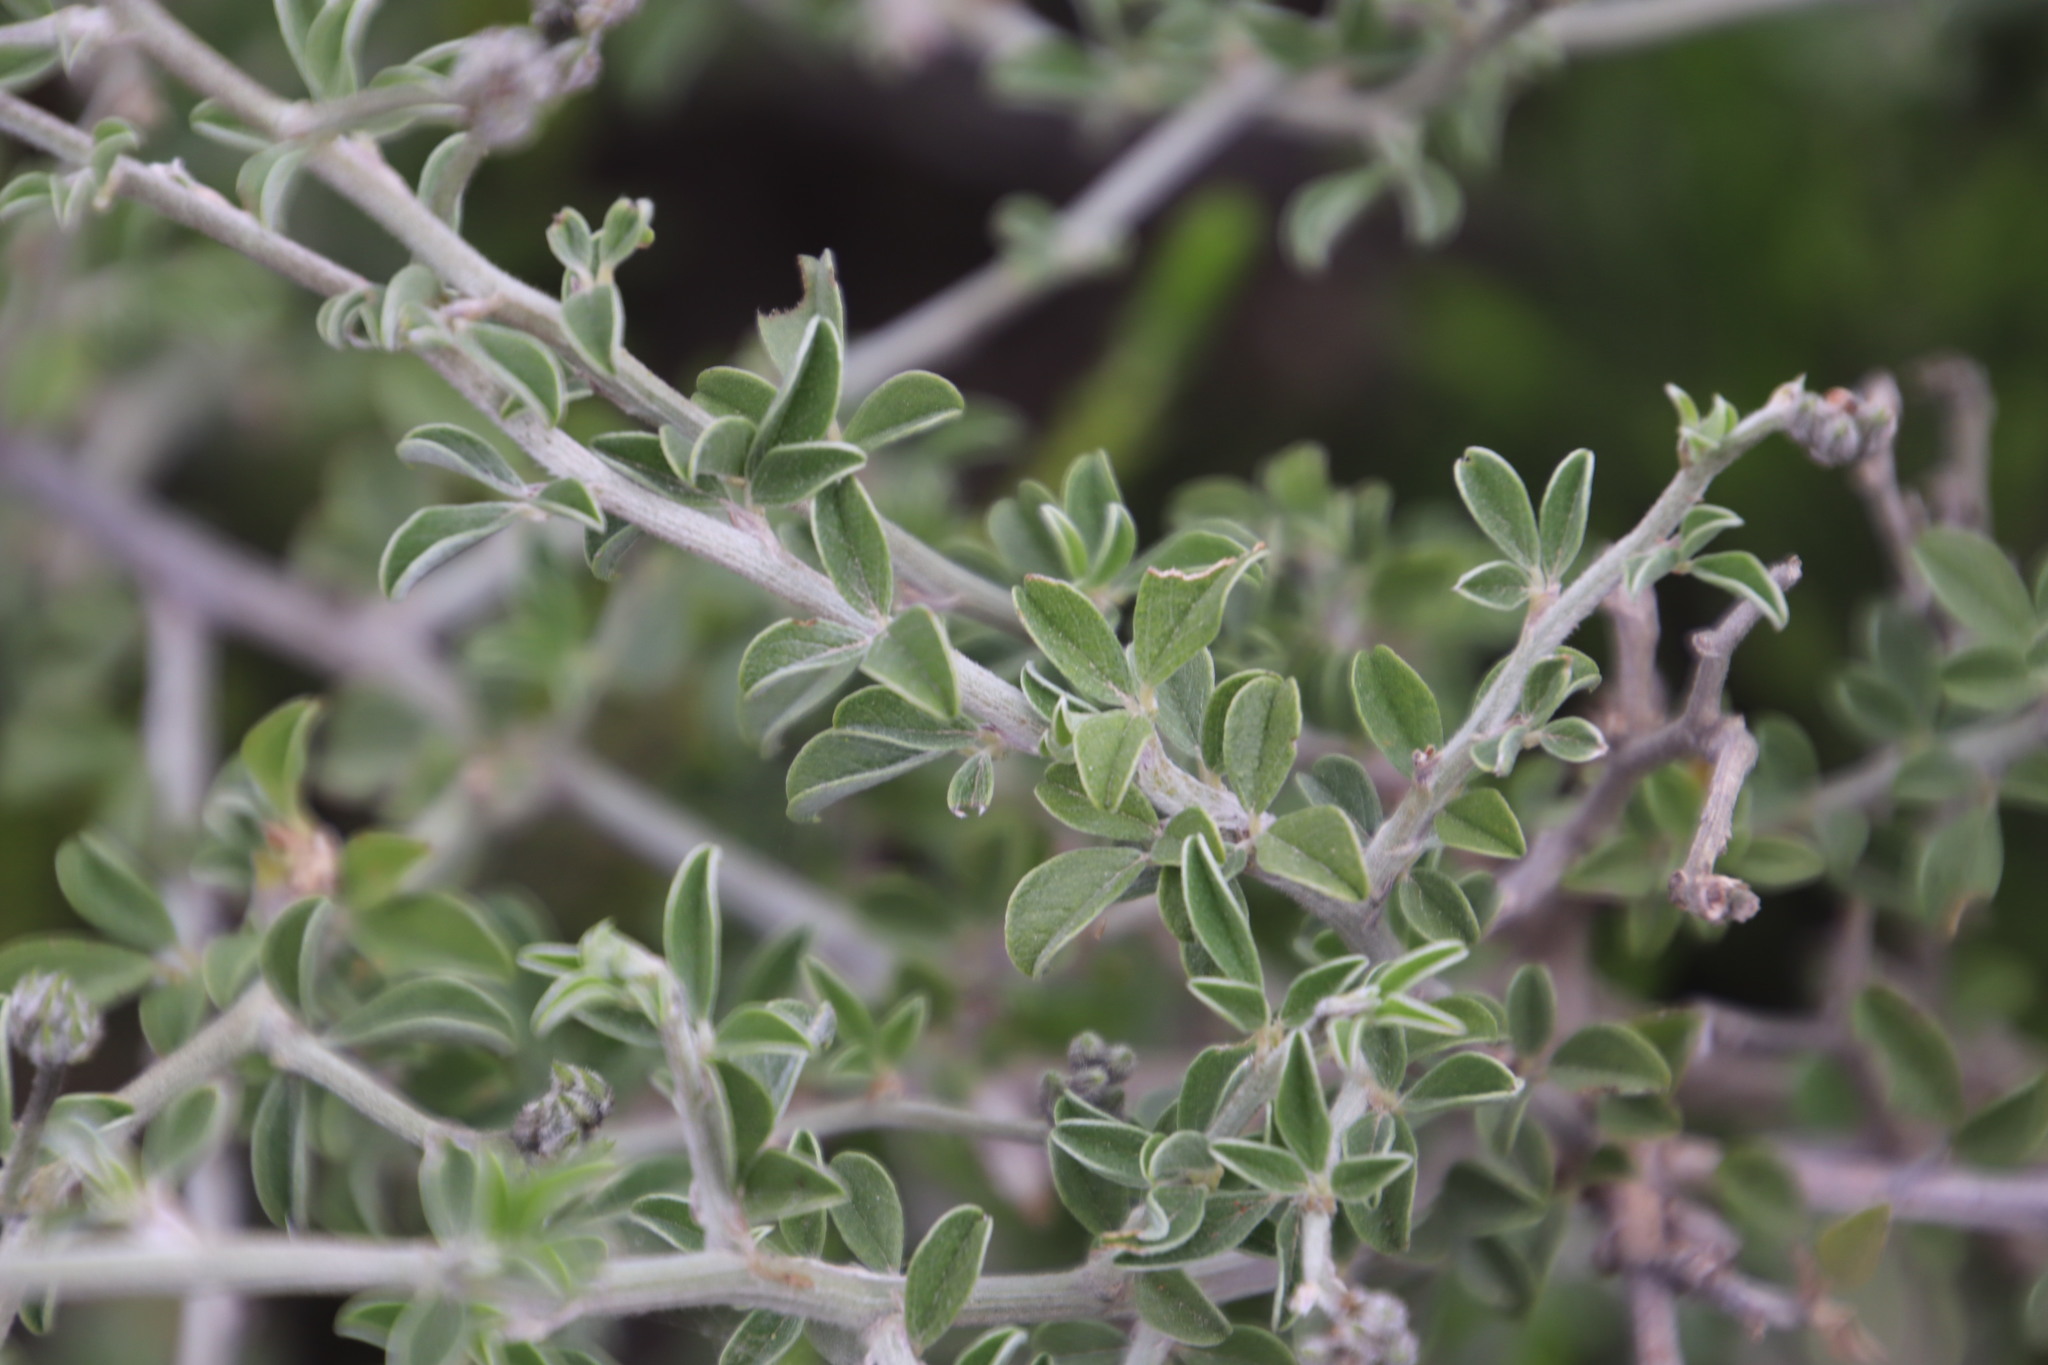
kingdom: Plantae
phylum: Tracheophyta
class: Magnoliopsida
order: Fabales
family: Fabaceae
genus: Psoralea
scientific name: Psoralea hirta
